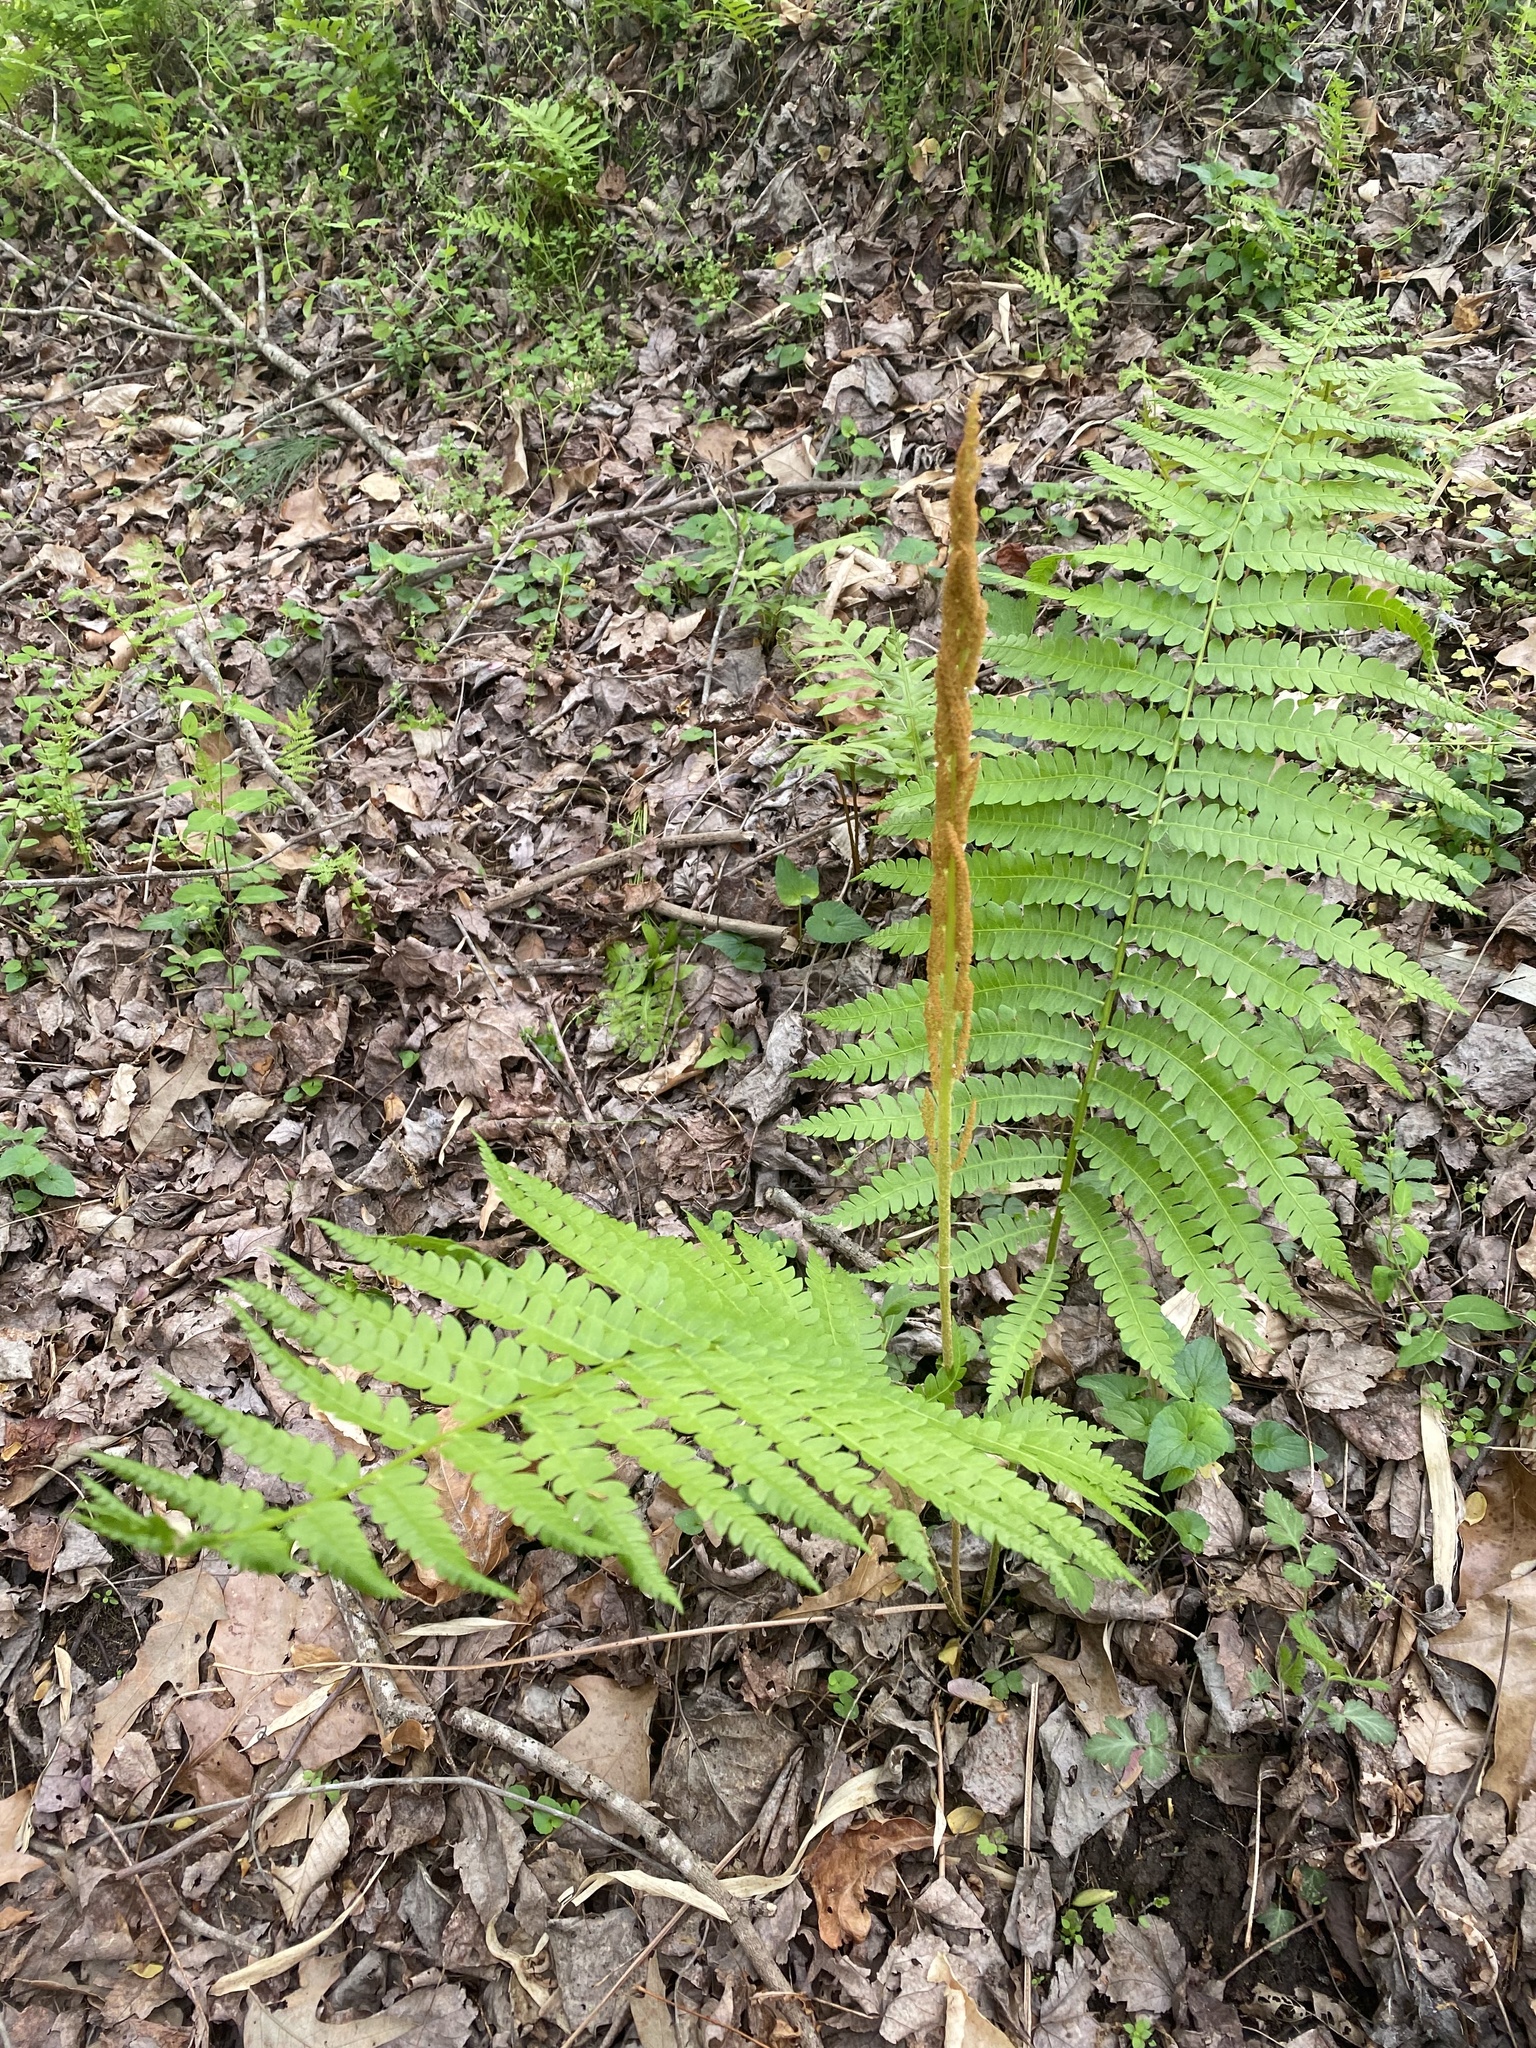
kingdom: Plantae
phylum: Tracheophyta
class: Polypodiopsida
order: Osmundales
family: Osmundaceae
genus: Osmundastrum
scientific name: Osmundastrum cinnamomeum
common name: Cinnamon fern
